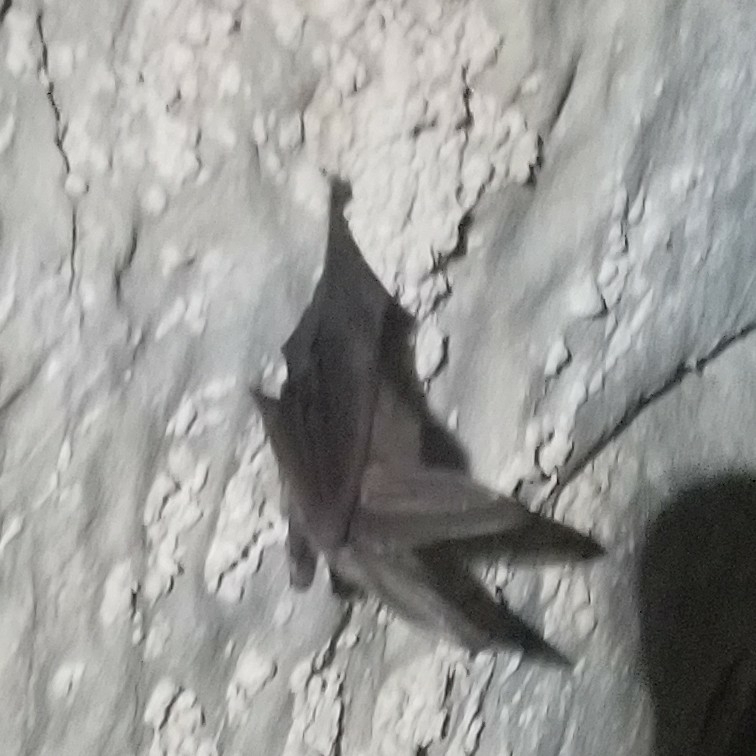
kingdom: Animalia
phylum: Chordata
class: Mammalia
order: Chiroptera
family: Vespertilionidae
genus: Corynorhinus
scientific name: Corynorhinus townsendii
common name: Townsend's big-eared bat
